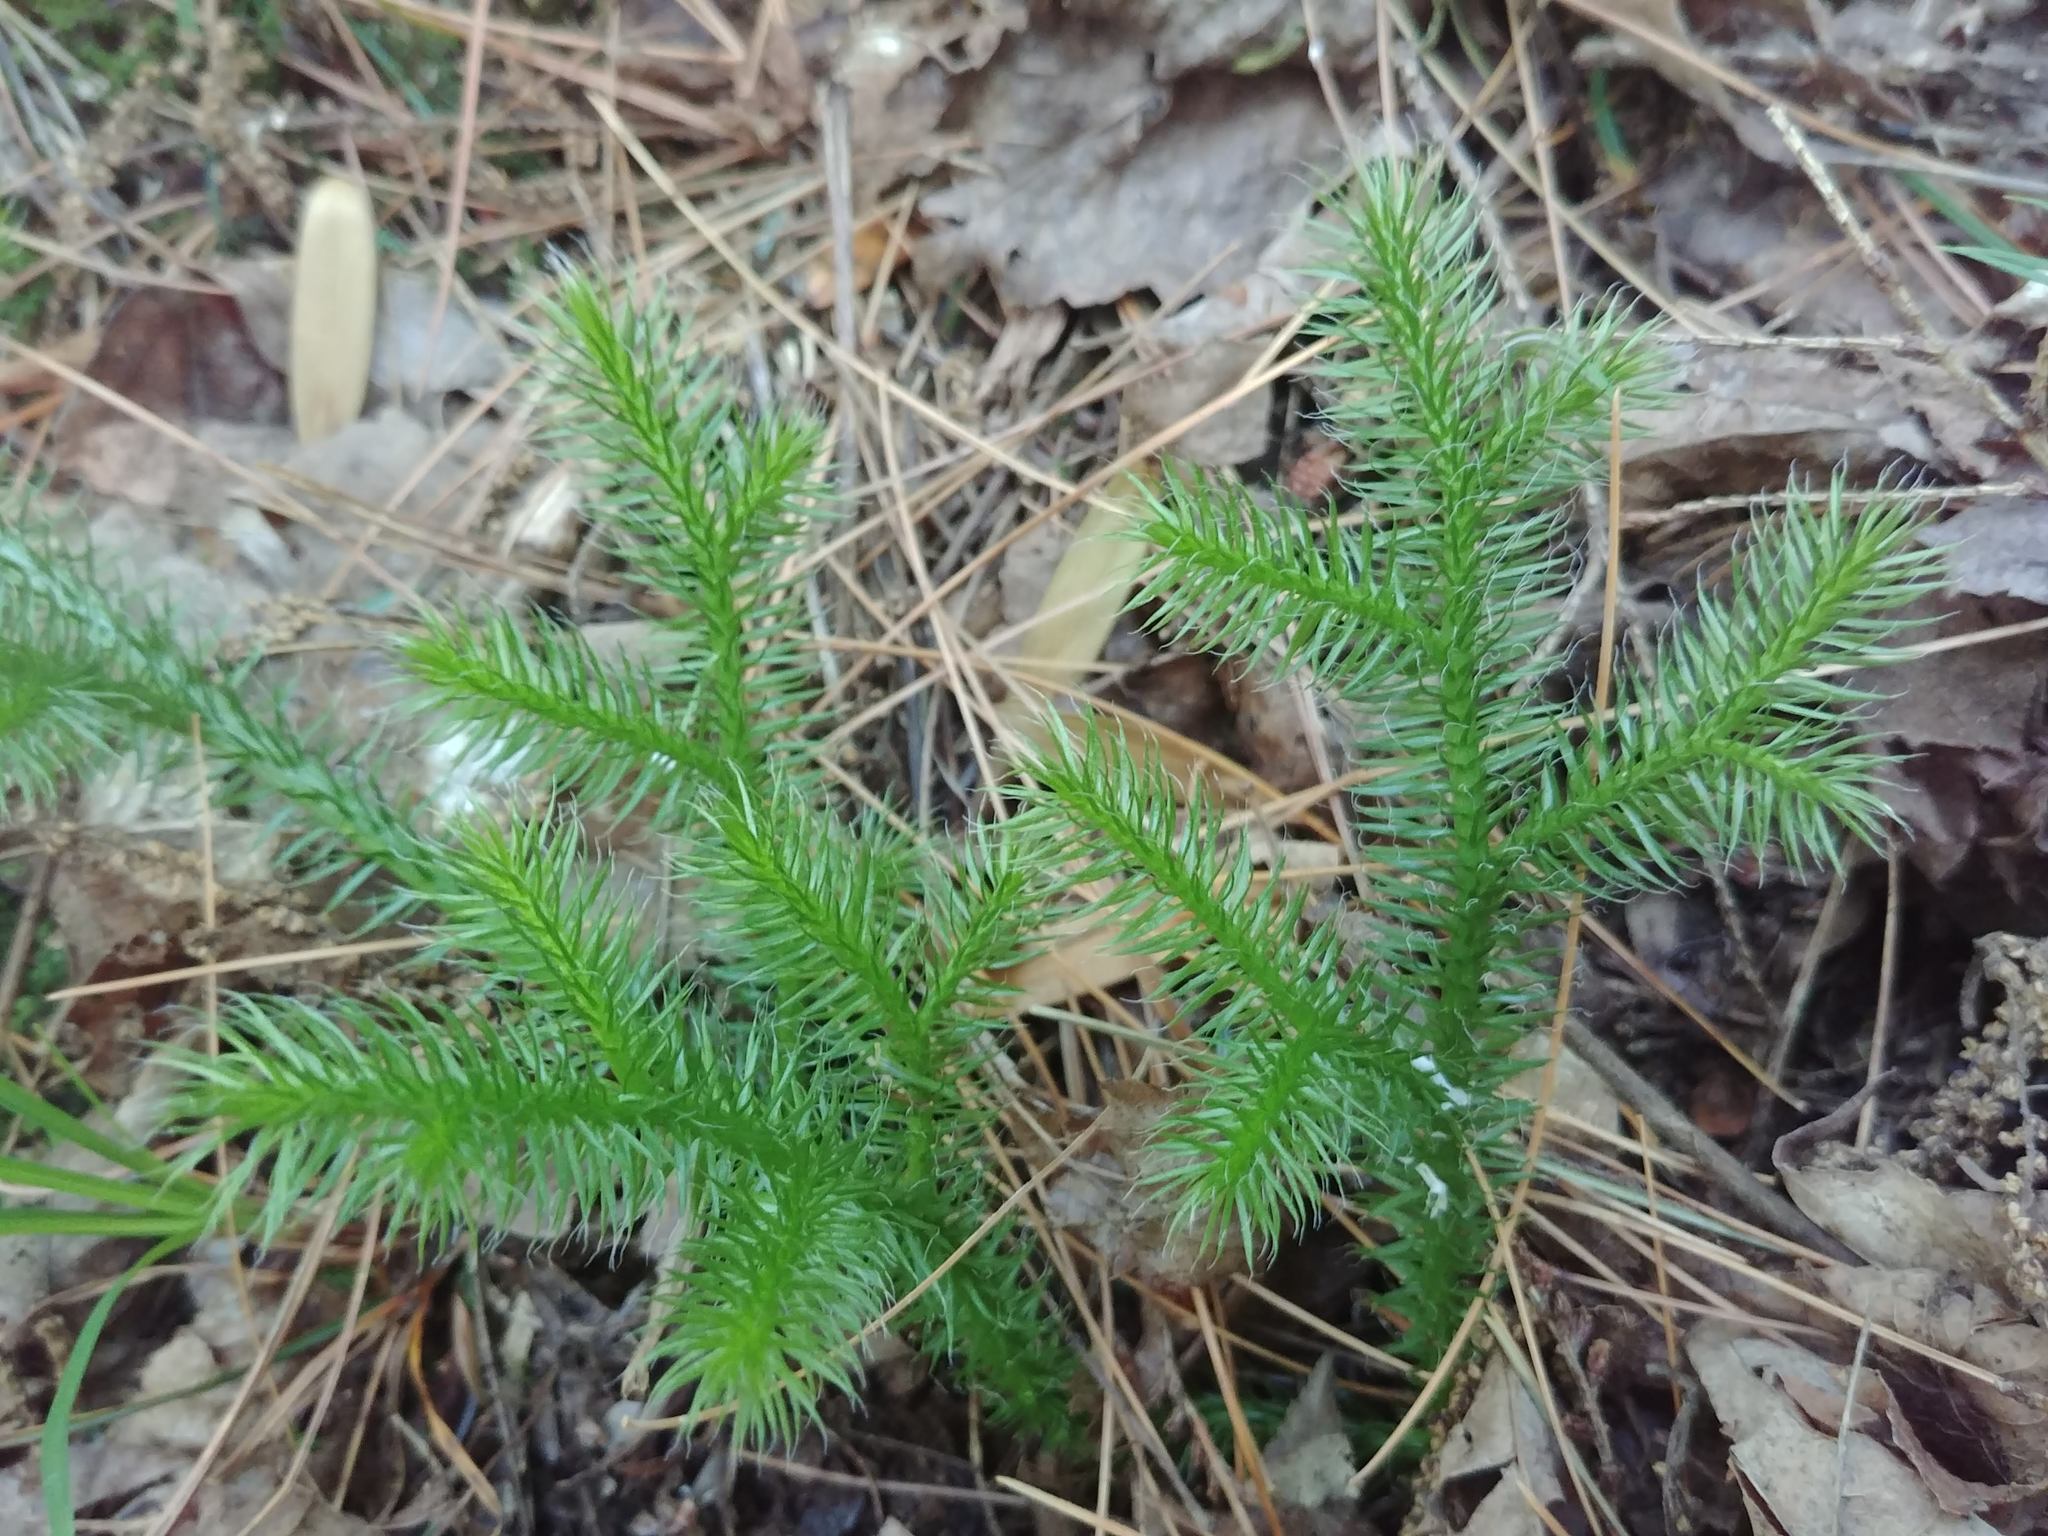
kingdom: Plantae
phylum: Tracheophyta
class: Lycopodiopsida
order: Lycopodiales
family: Lycopodiaceae
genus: Lycopodium
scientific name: Lycopodium clavatum
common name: Stag's-horn clubmoss
